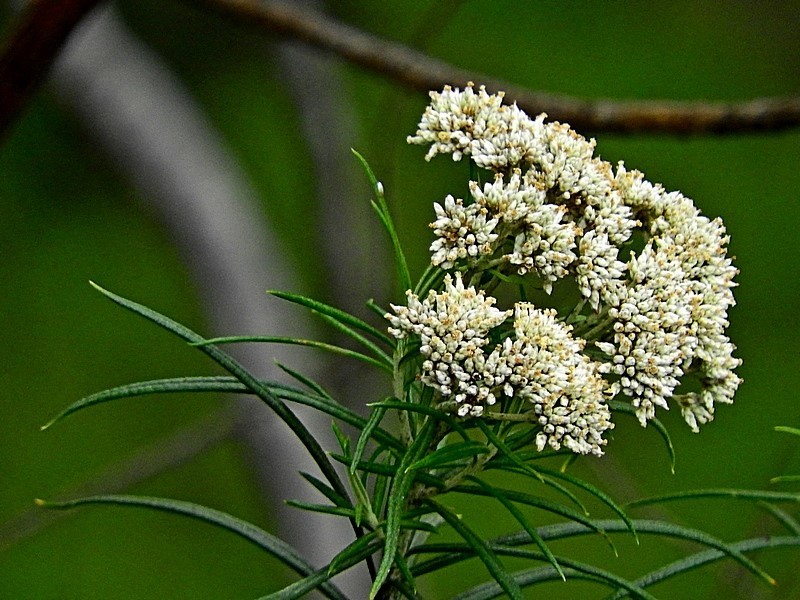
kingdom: Plantae
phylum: Tracheophyta
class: Magnoliopsida
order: Asterales
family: Asteraceae
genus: Cassinia
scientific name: Cassinia longifolia
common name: Longleaf-dogwood
